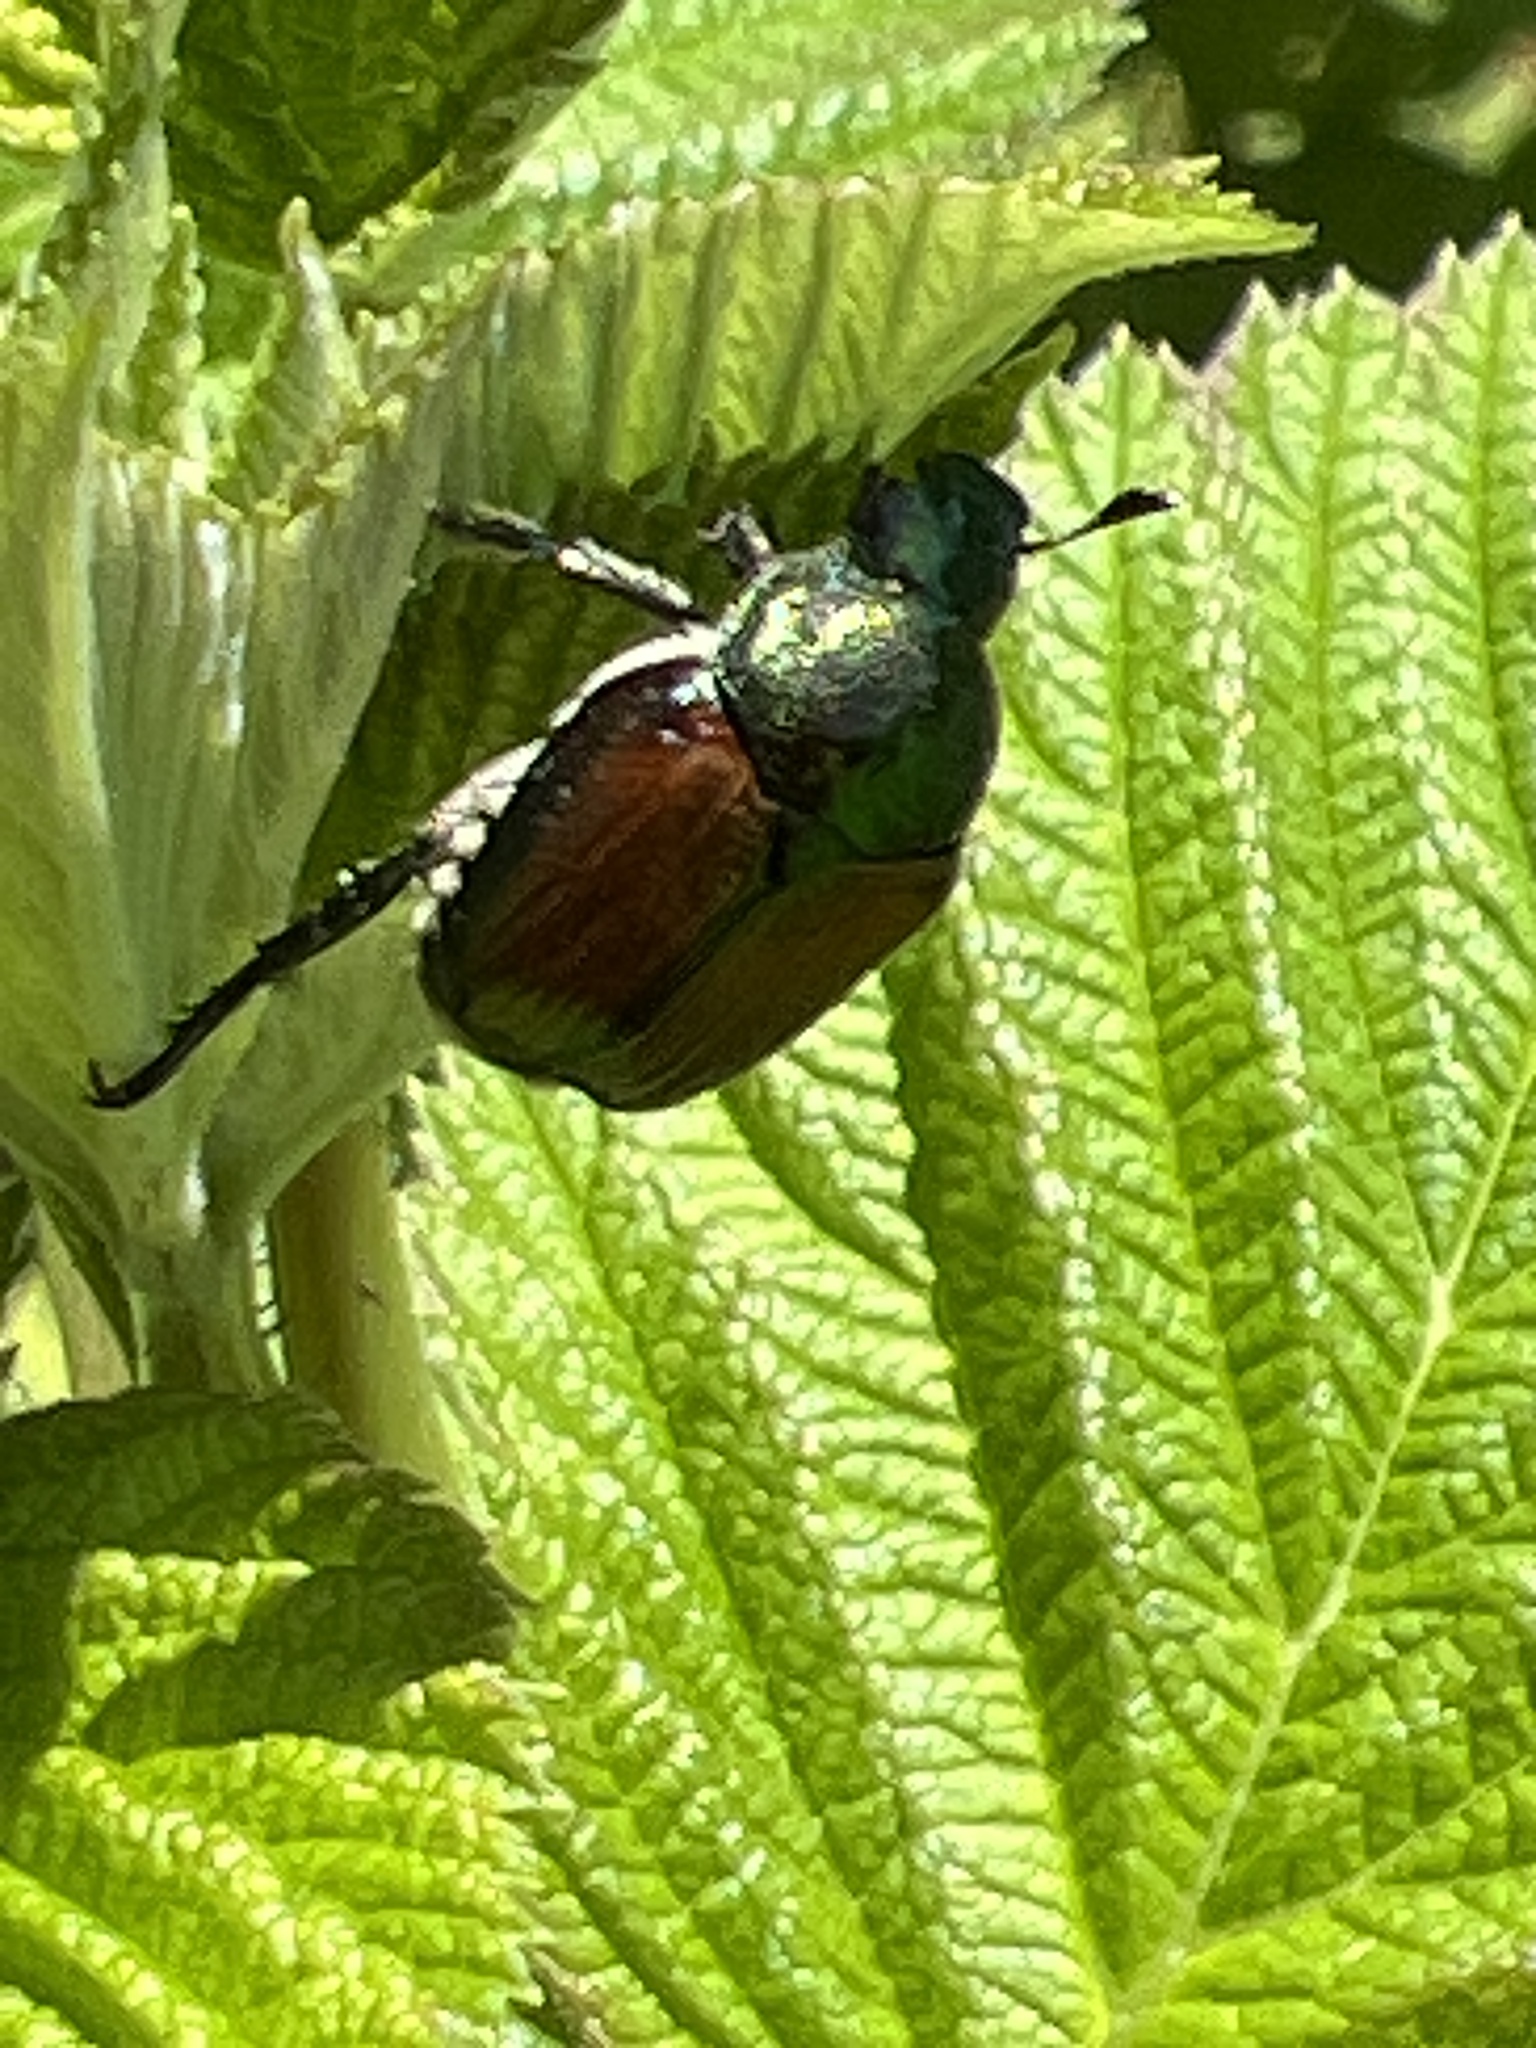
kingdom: Animalia
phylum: Arthropoda
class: Insecta
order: Coleoptera
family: Scarabaeidae
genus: Popillia
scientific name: Popillia japonica
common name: Japanese beetle
